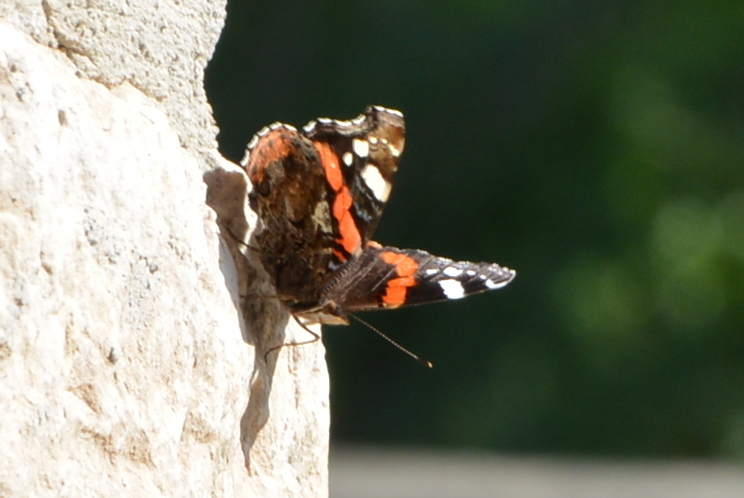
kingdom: Animalia
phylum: Arthropoda
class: Insecta
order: Lepidoptera
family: Nymphalidae
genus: Vanessa
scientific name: Vanessa atalanta
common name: Red admiral
